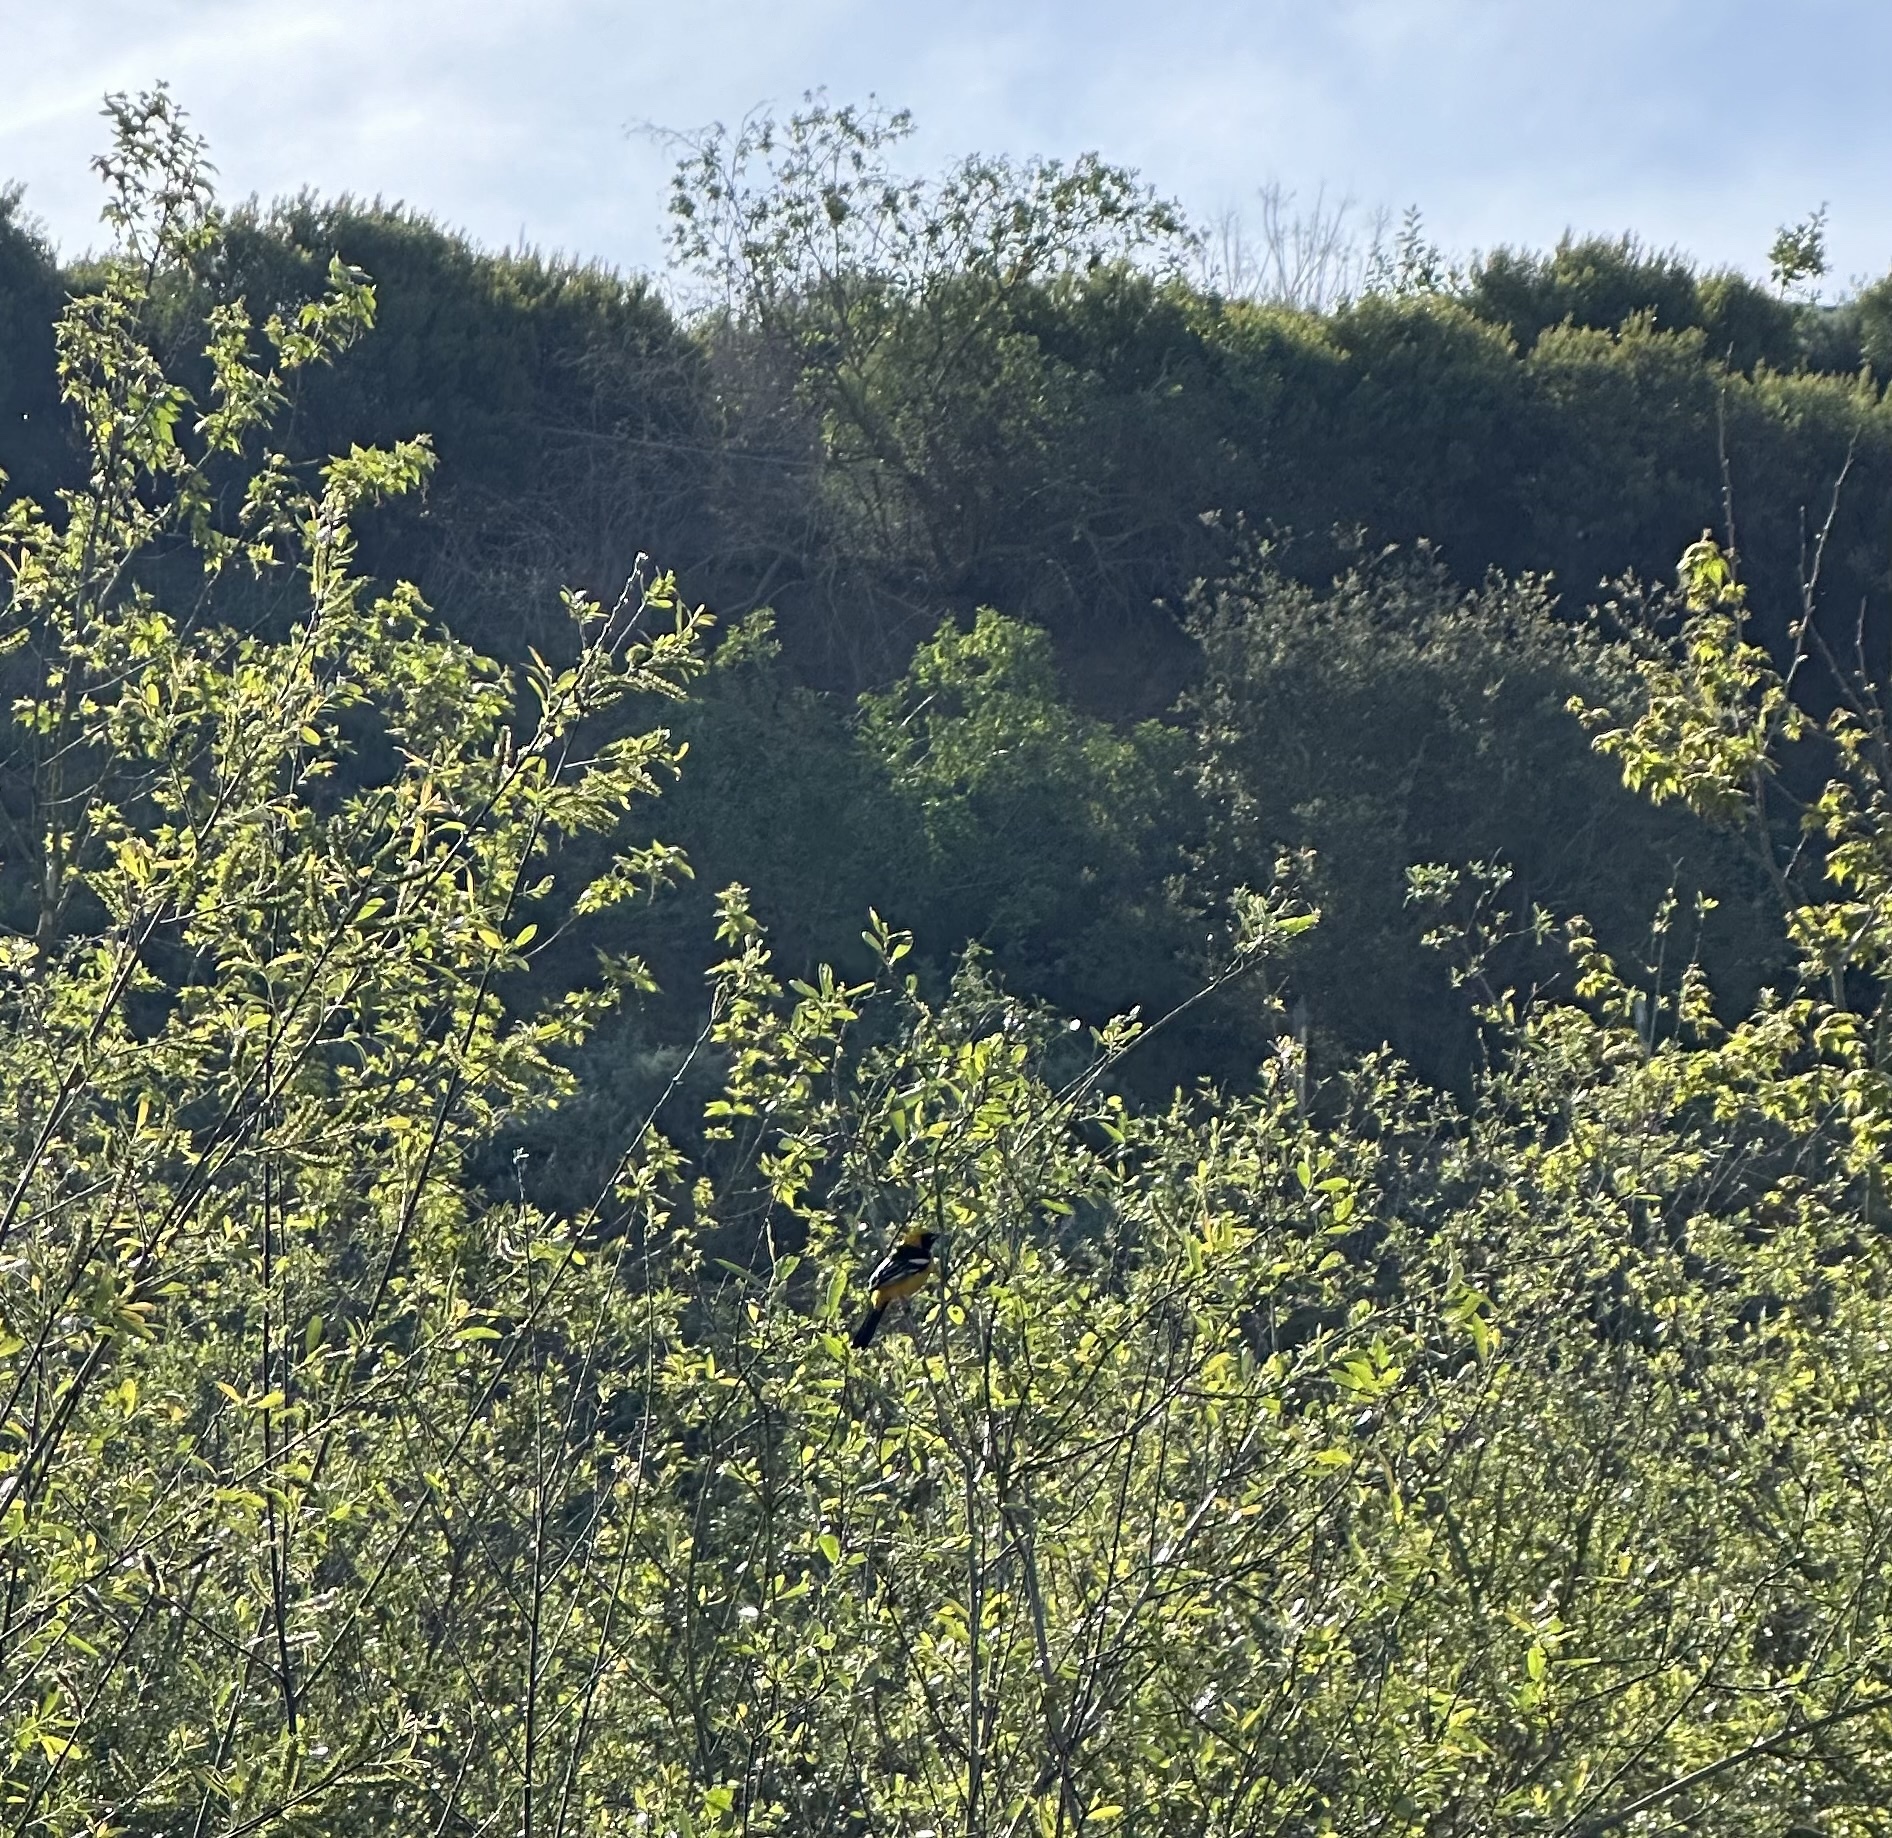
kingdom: Animalia
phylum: Chordata
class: Aves
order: Passeriformes
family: Icteridae
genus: Icterus
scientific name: Icterus cucullatus
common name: Hooded oriole
